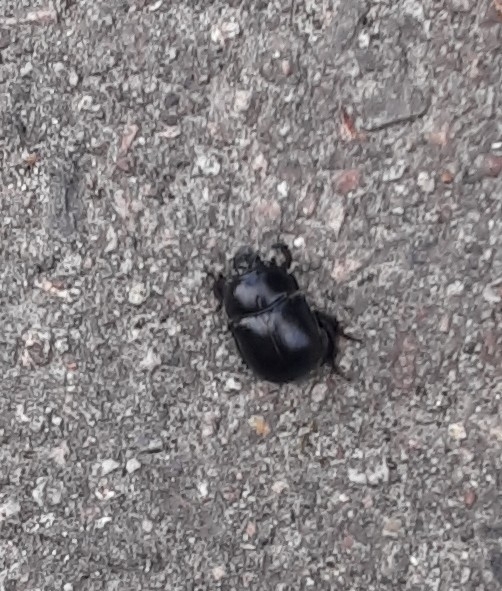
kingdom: Animalia
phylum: Arthropoda
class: Insecta
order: Coleoptera
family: Geotrupidae
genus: Anoplotrupes
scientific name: Anoplotrupes stercorosus
